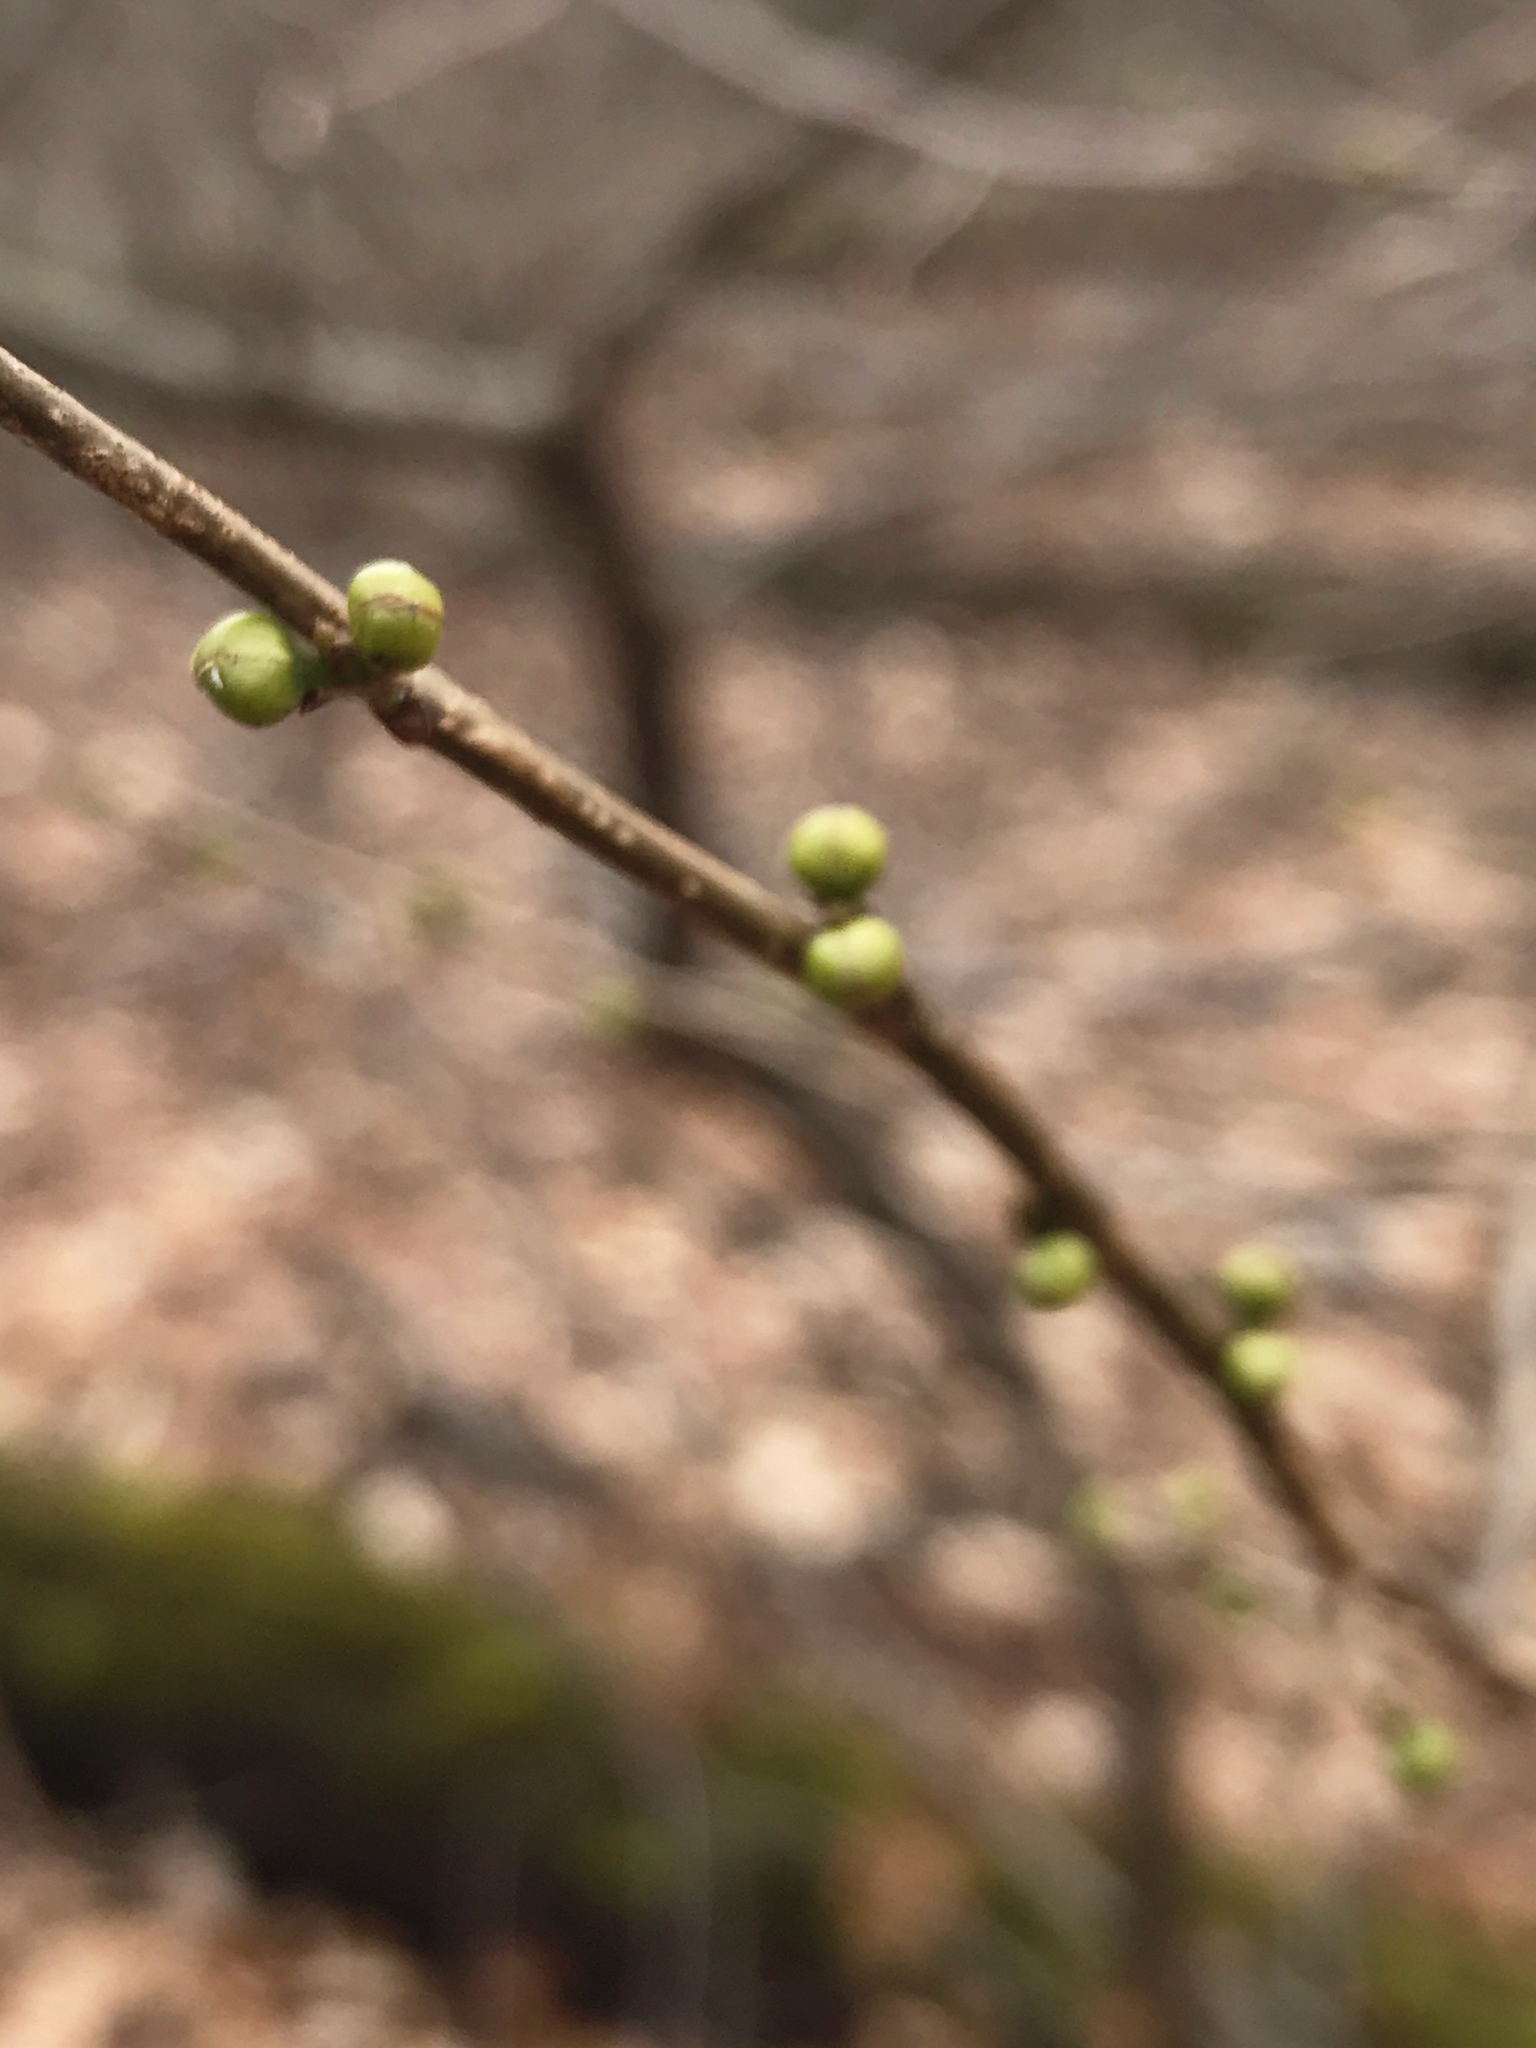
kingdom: Plantae
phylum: Tracheophyta
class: Magnoliopsida
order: Laurales
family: Lauraceae
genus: Lindera
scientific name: Lindera benzoin
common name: Spicebush
